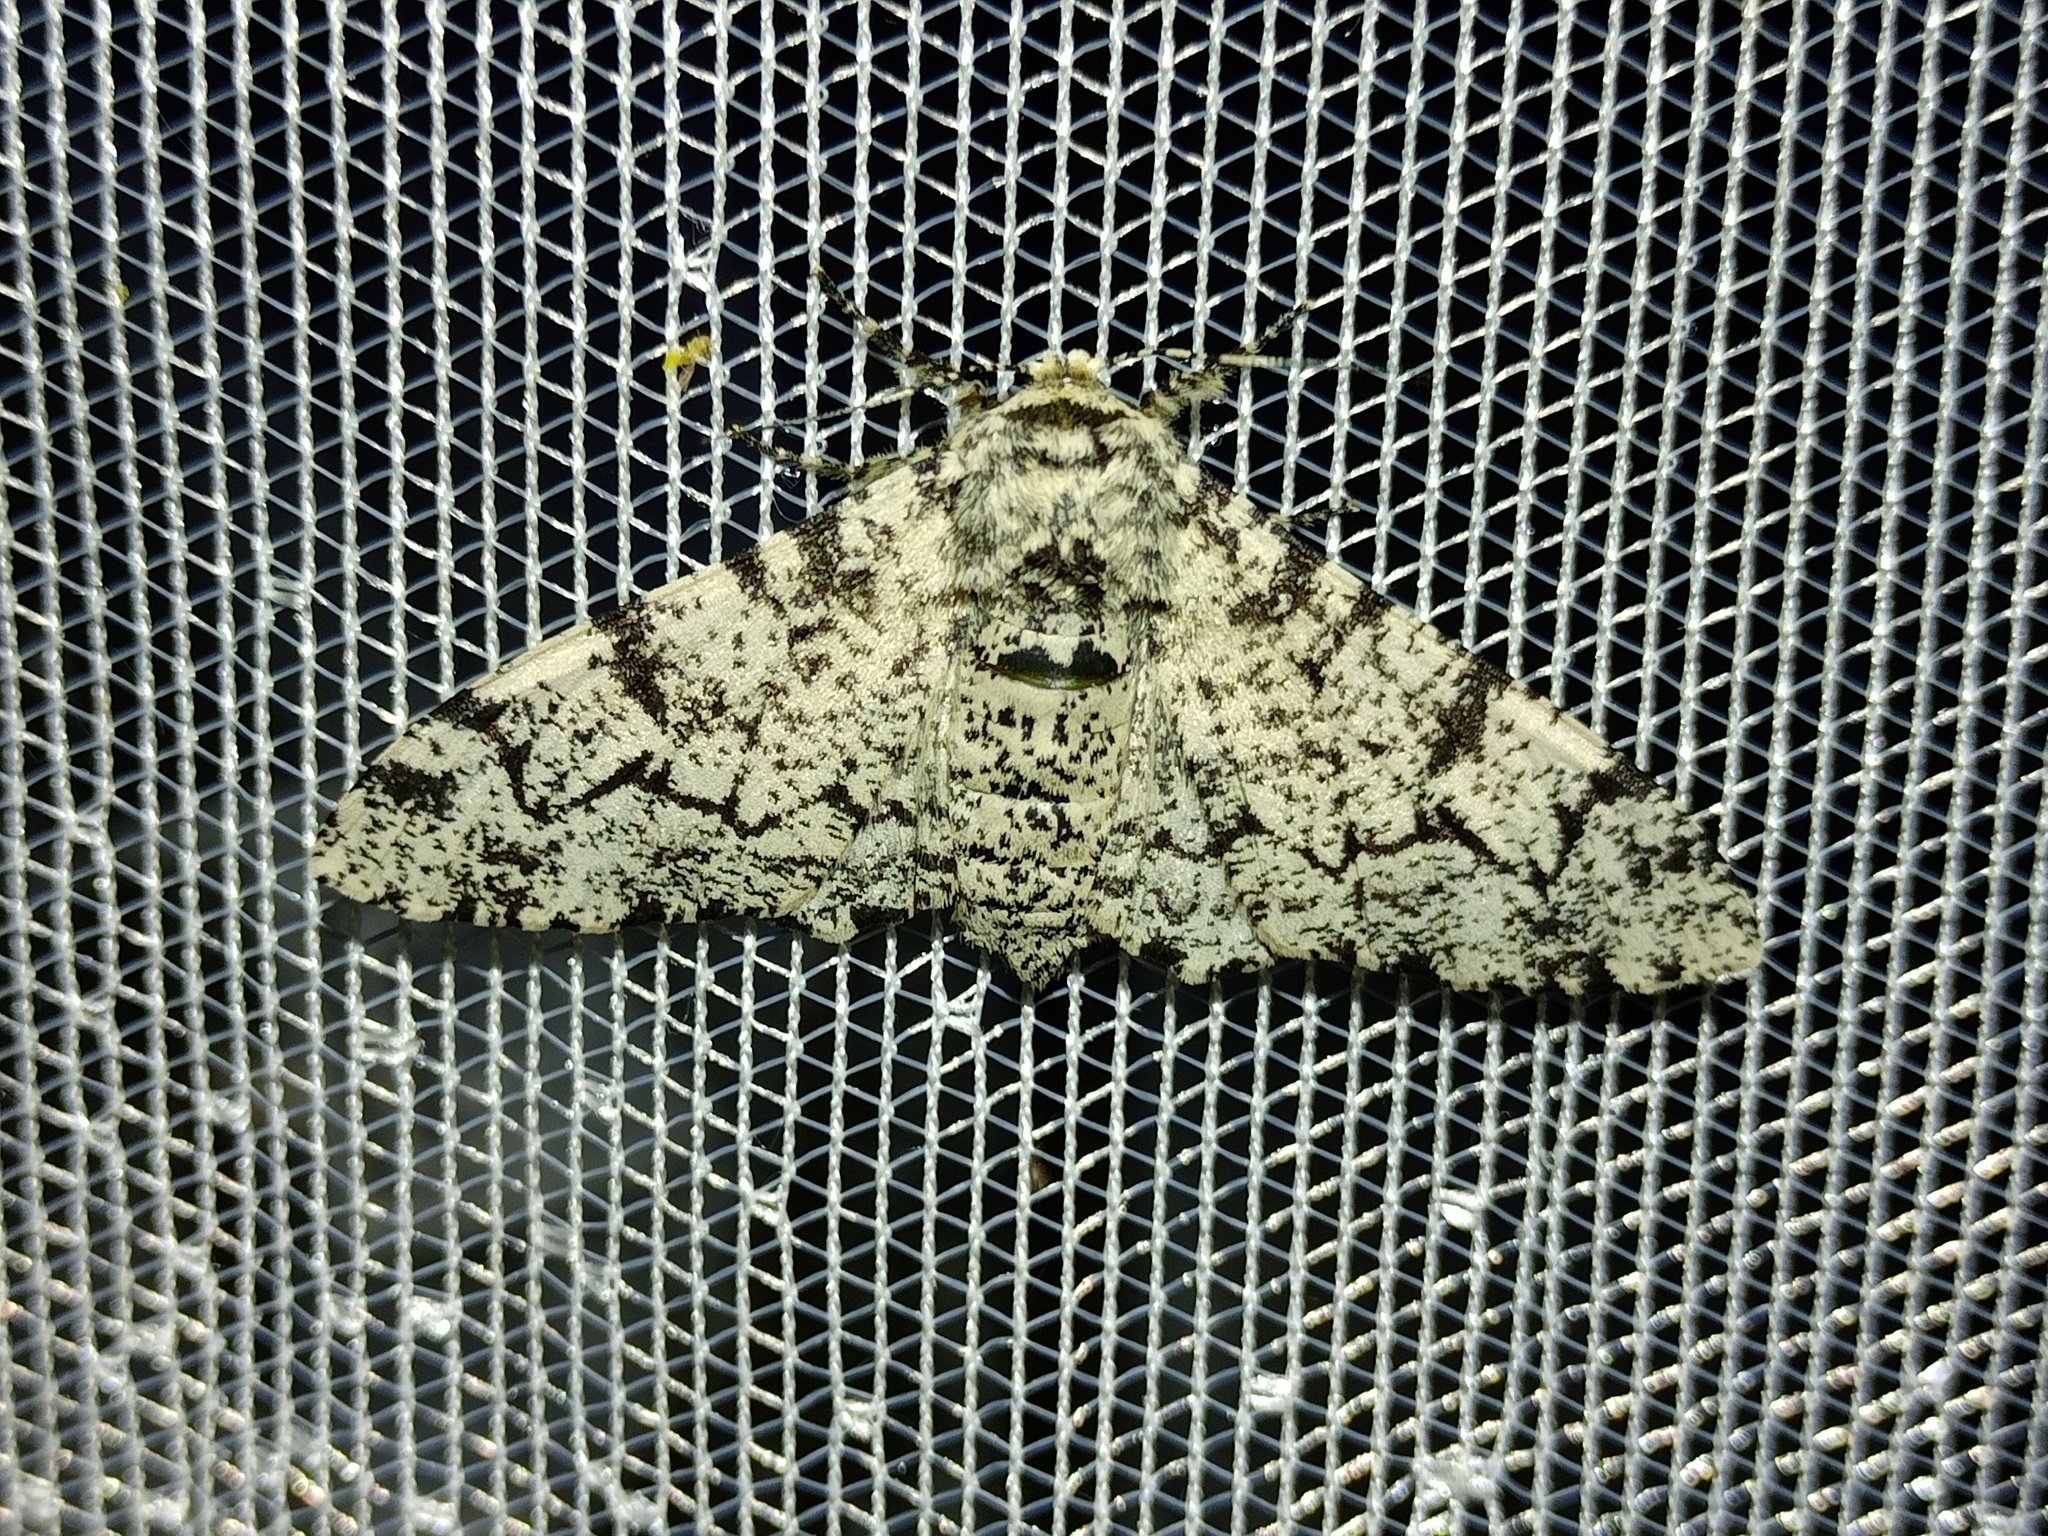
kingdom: Animalia
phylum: Arthropoda
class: Insecta
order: Lepidoptera
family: Geometridae
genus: Biston
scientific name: Biston betularia
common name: Peppered moth
